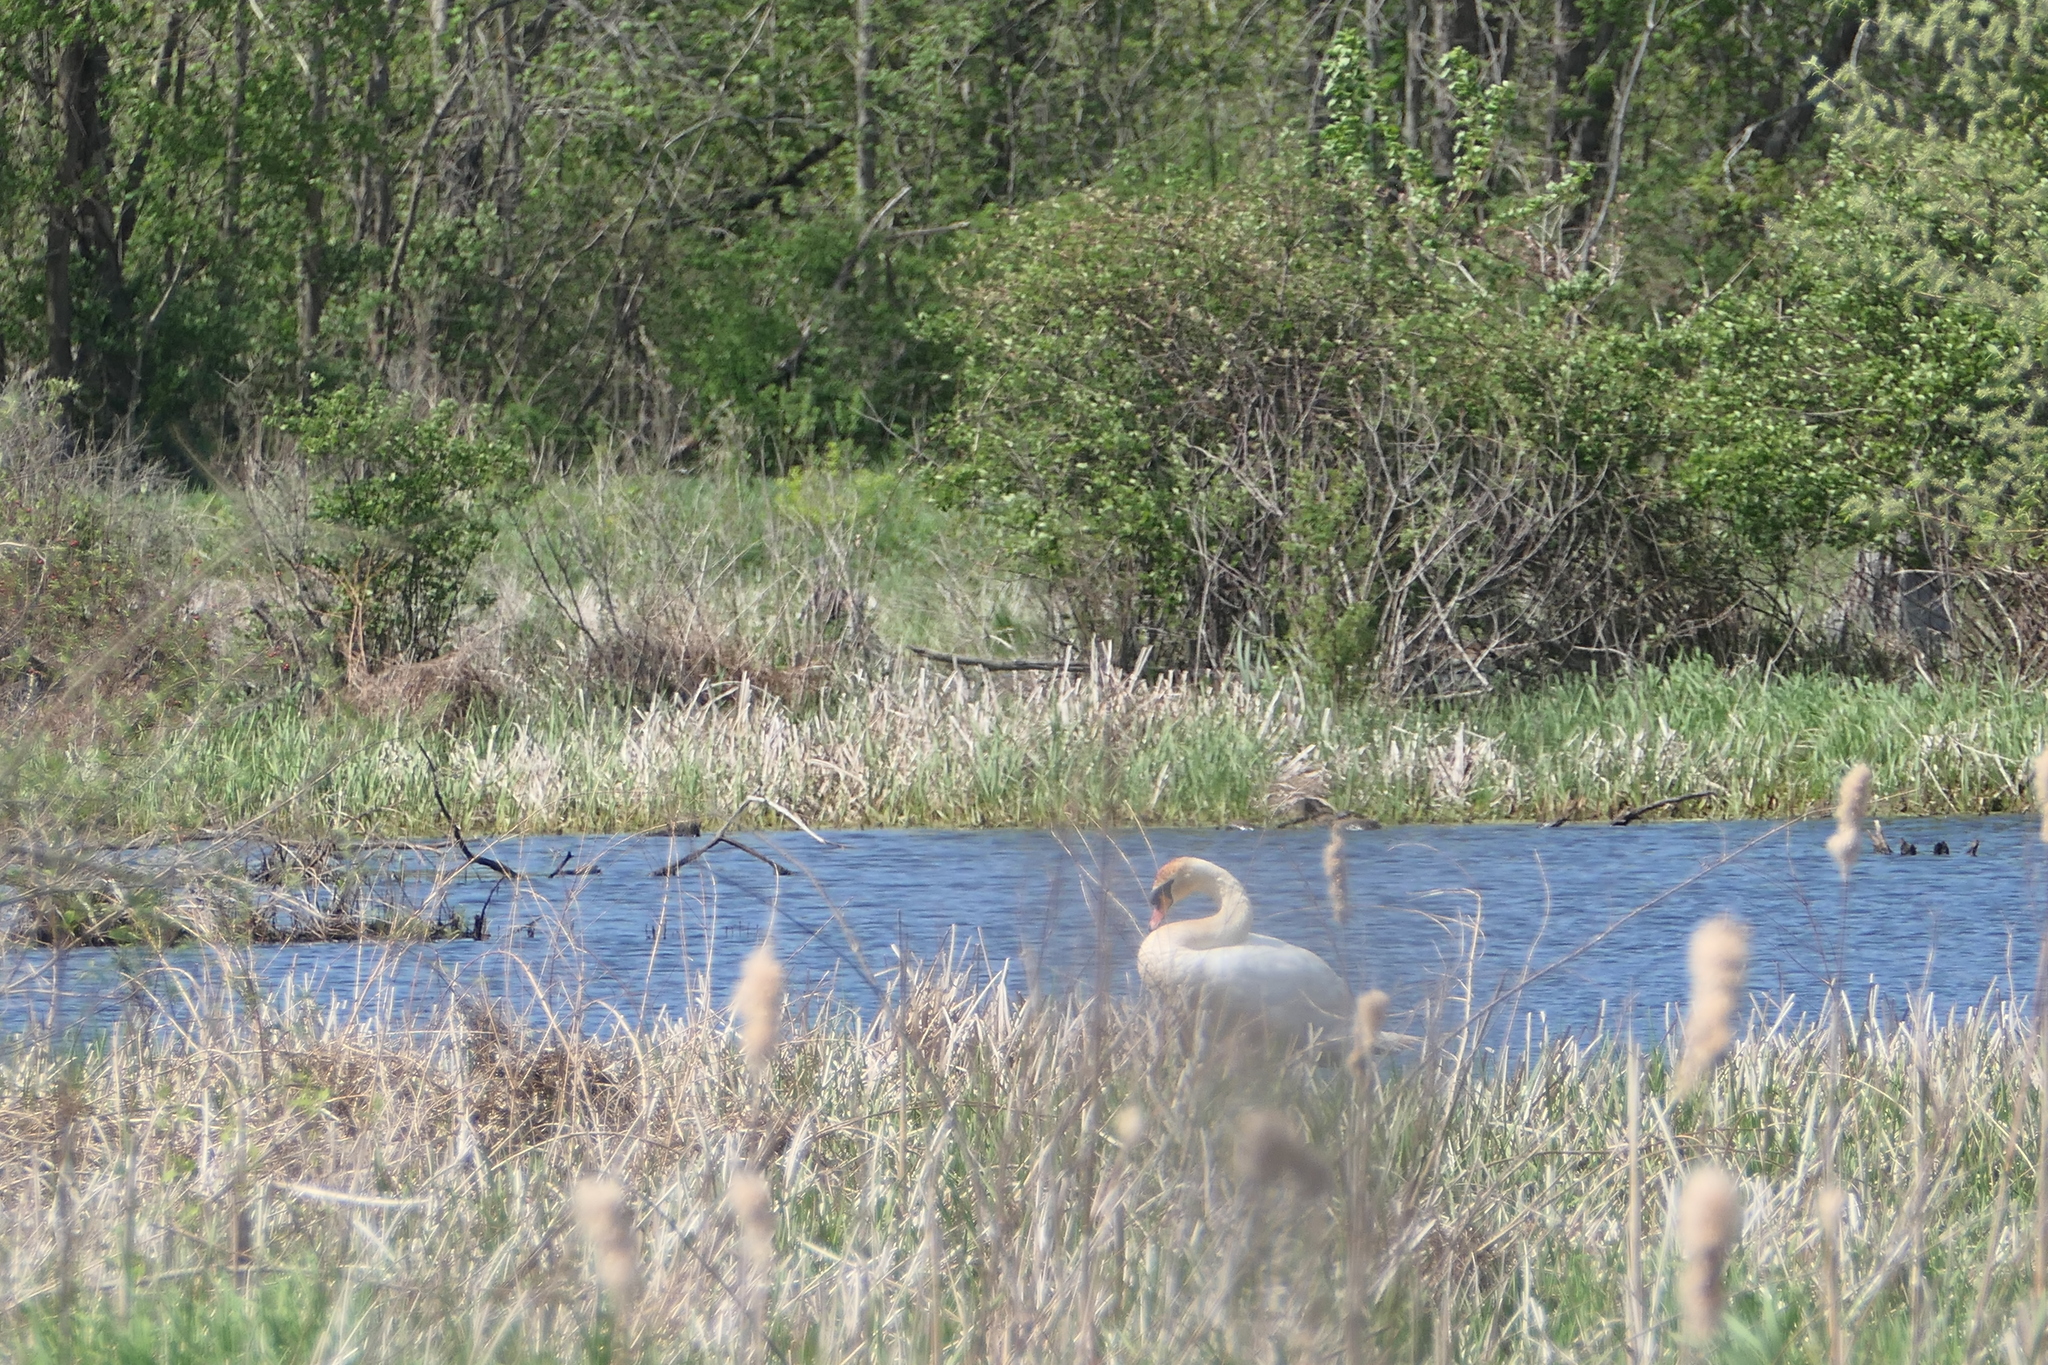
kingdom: Animalia
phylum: Chordata
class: Aves
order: Anseriformes
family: Anatidae
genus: Cygnus
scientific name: Cygnus olor
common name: Mute swan
